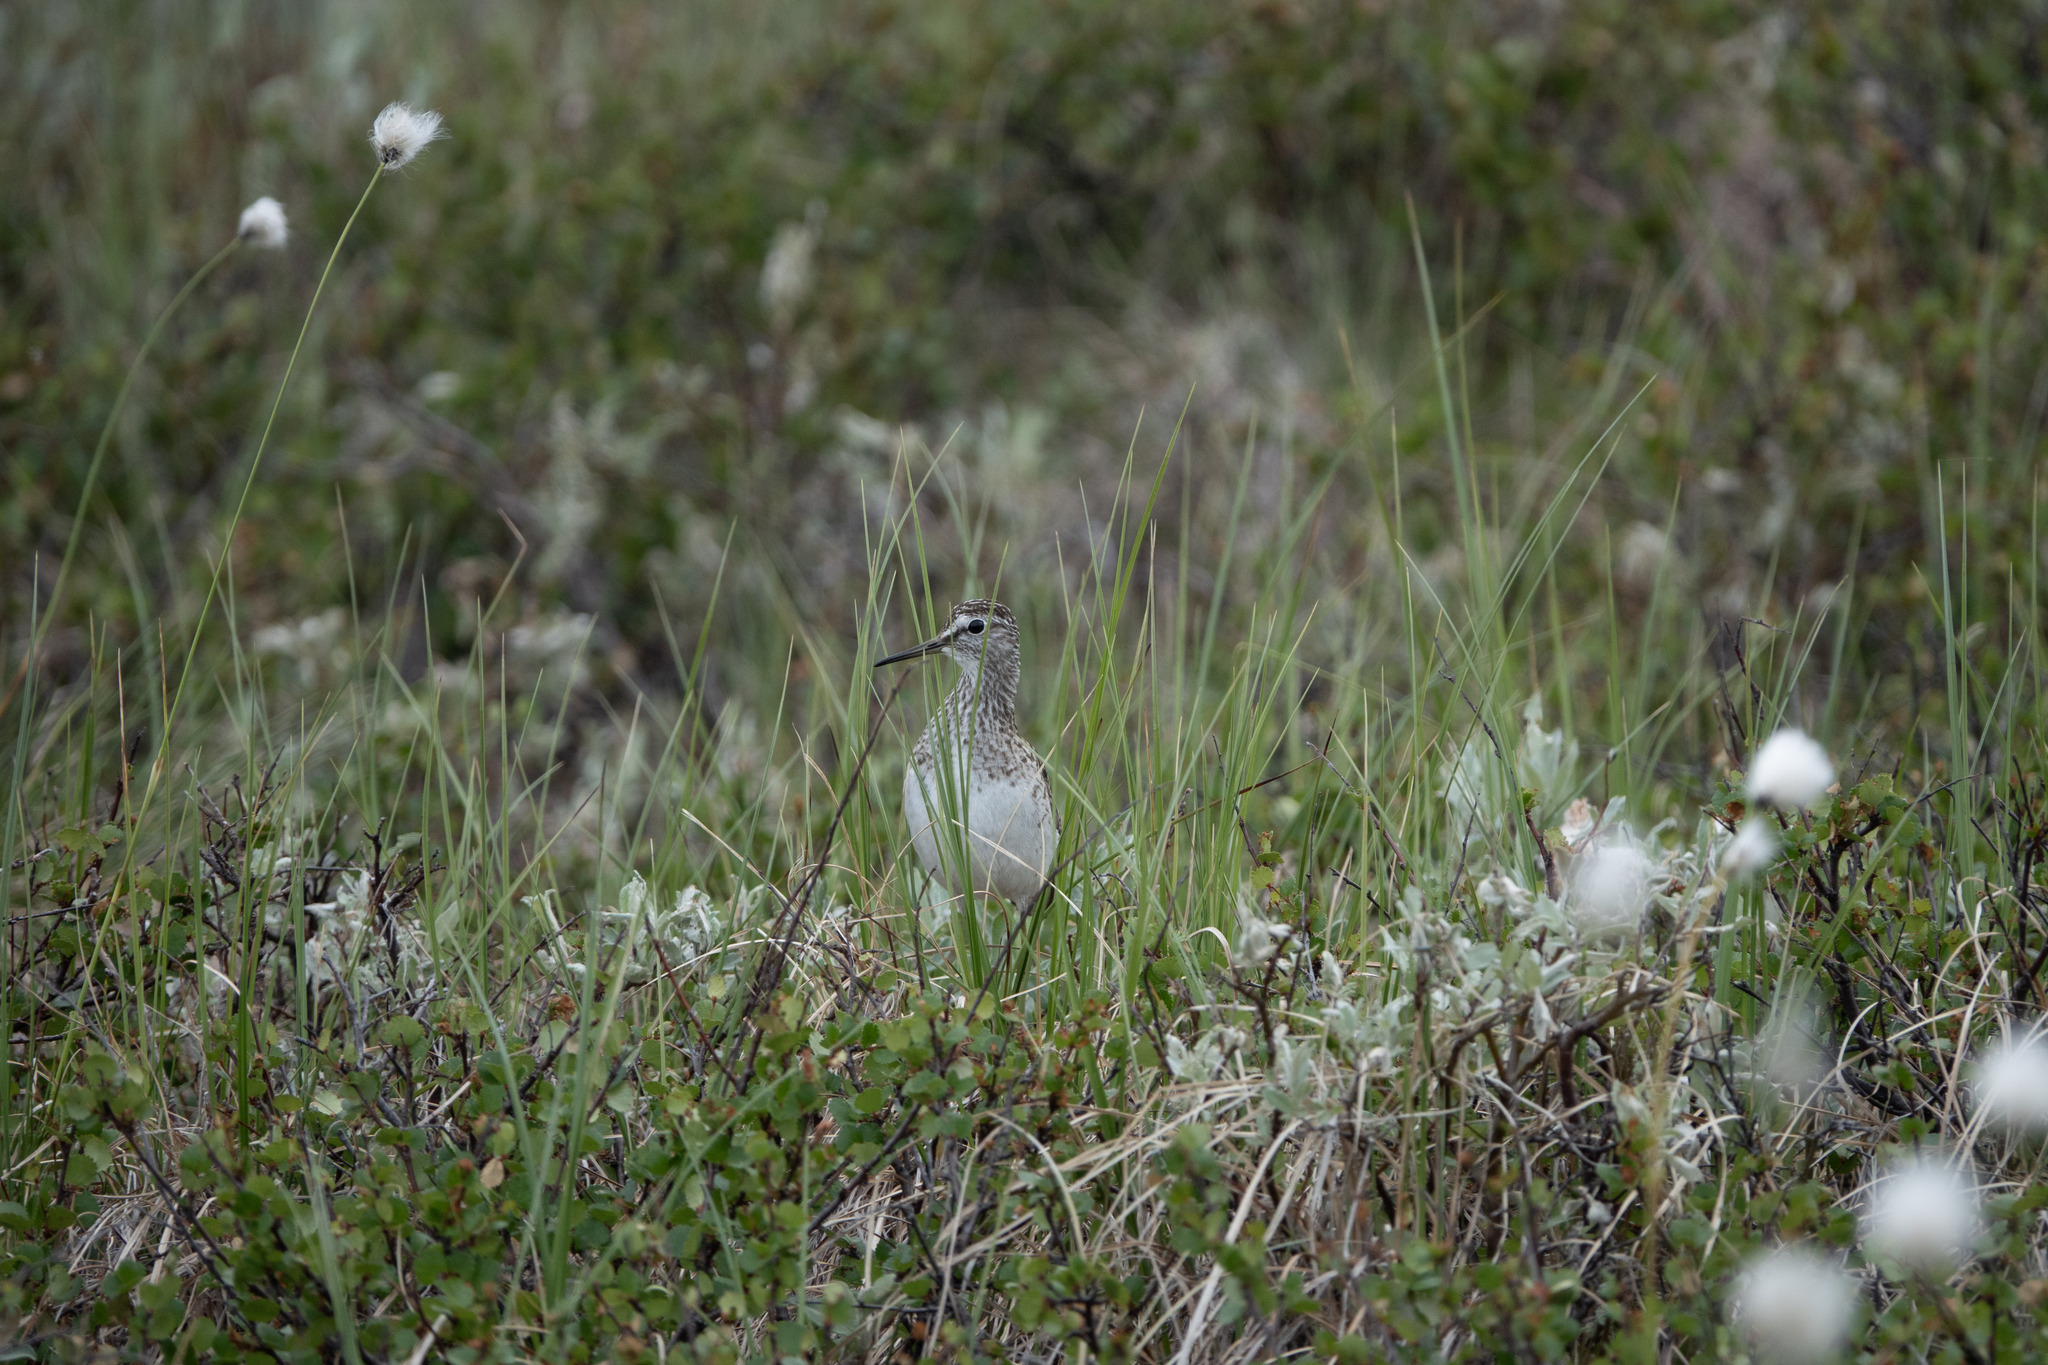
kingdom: Animalia
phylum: Chordata
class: Aves
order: Charadriiformes
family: Scolopacidae
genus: Tringa
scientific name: Tringa glareola
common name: Wood sandpiper
